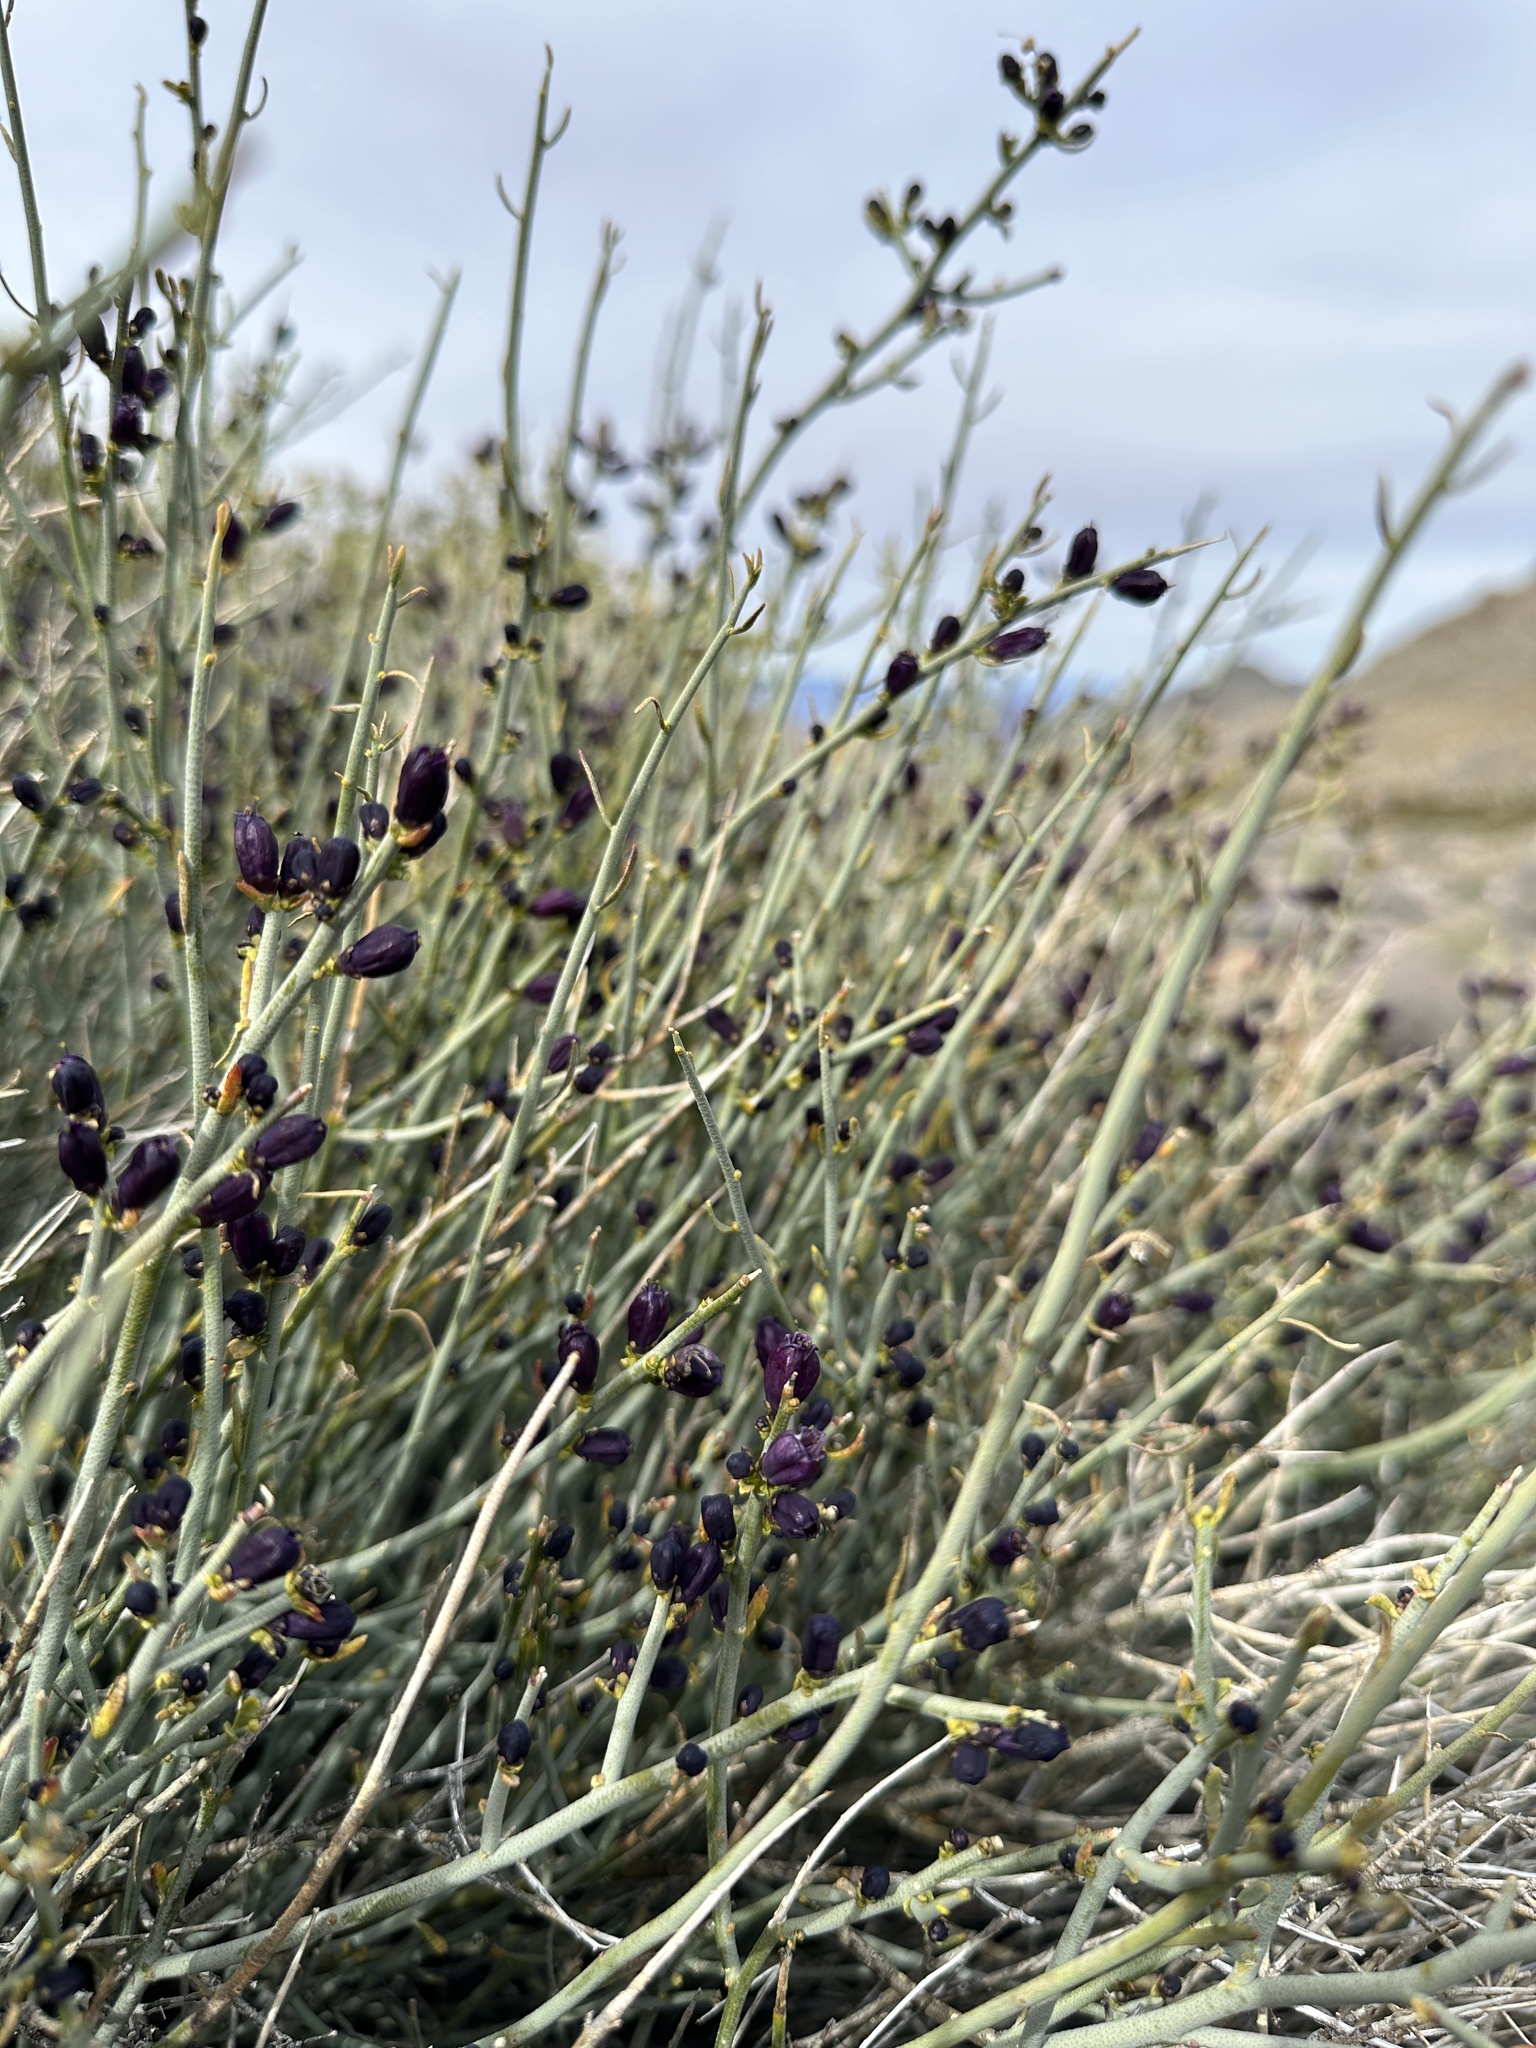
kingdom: Plantae
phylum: Tracheophyta
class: Magnoliopsida
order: Sapindales
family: Rutaceae
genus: Thamnosma
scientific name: Thamnosma montana
